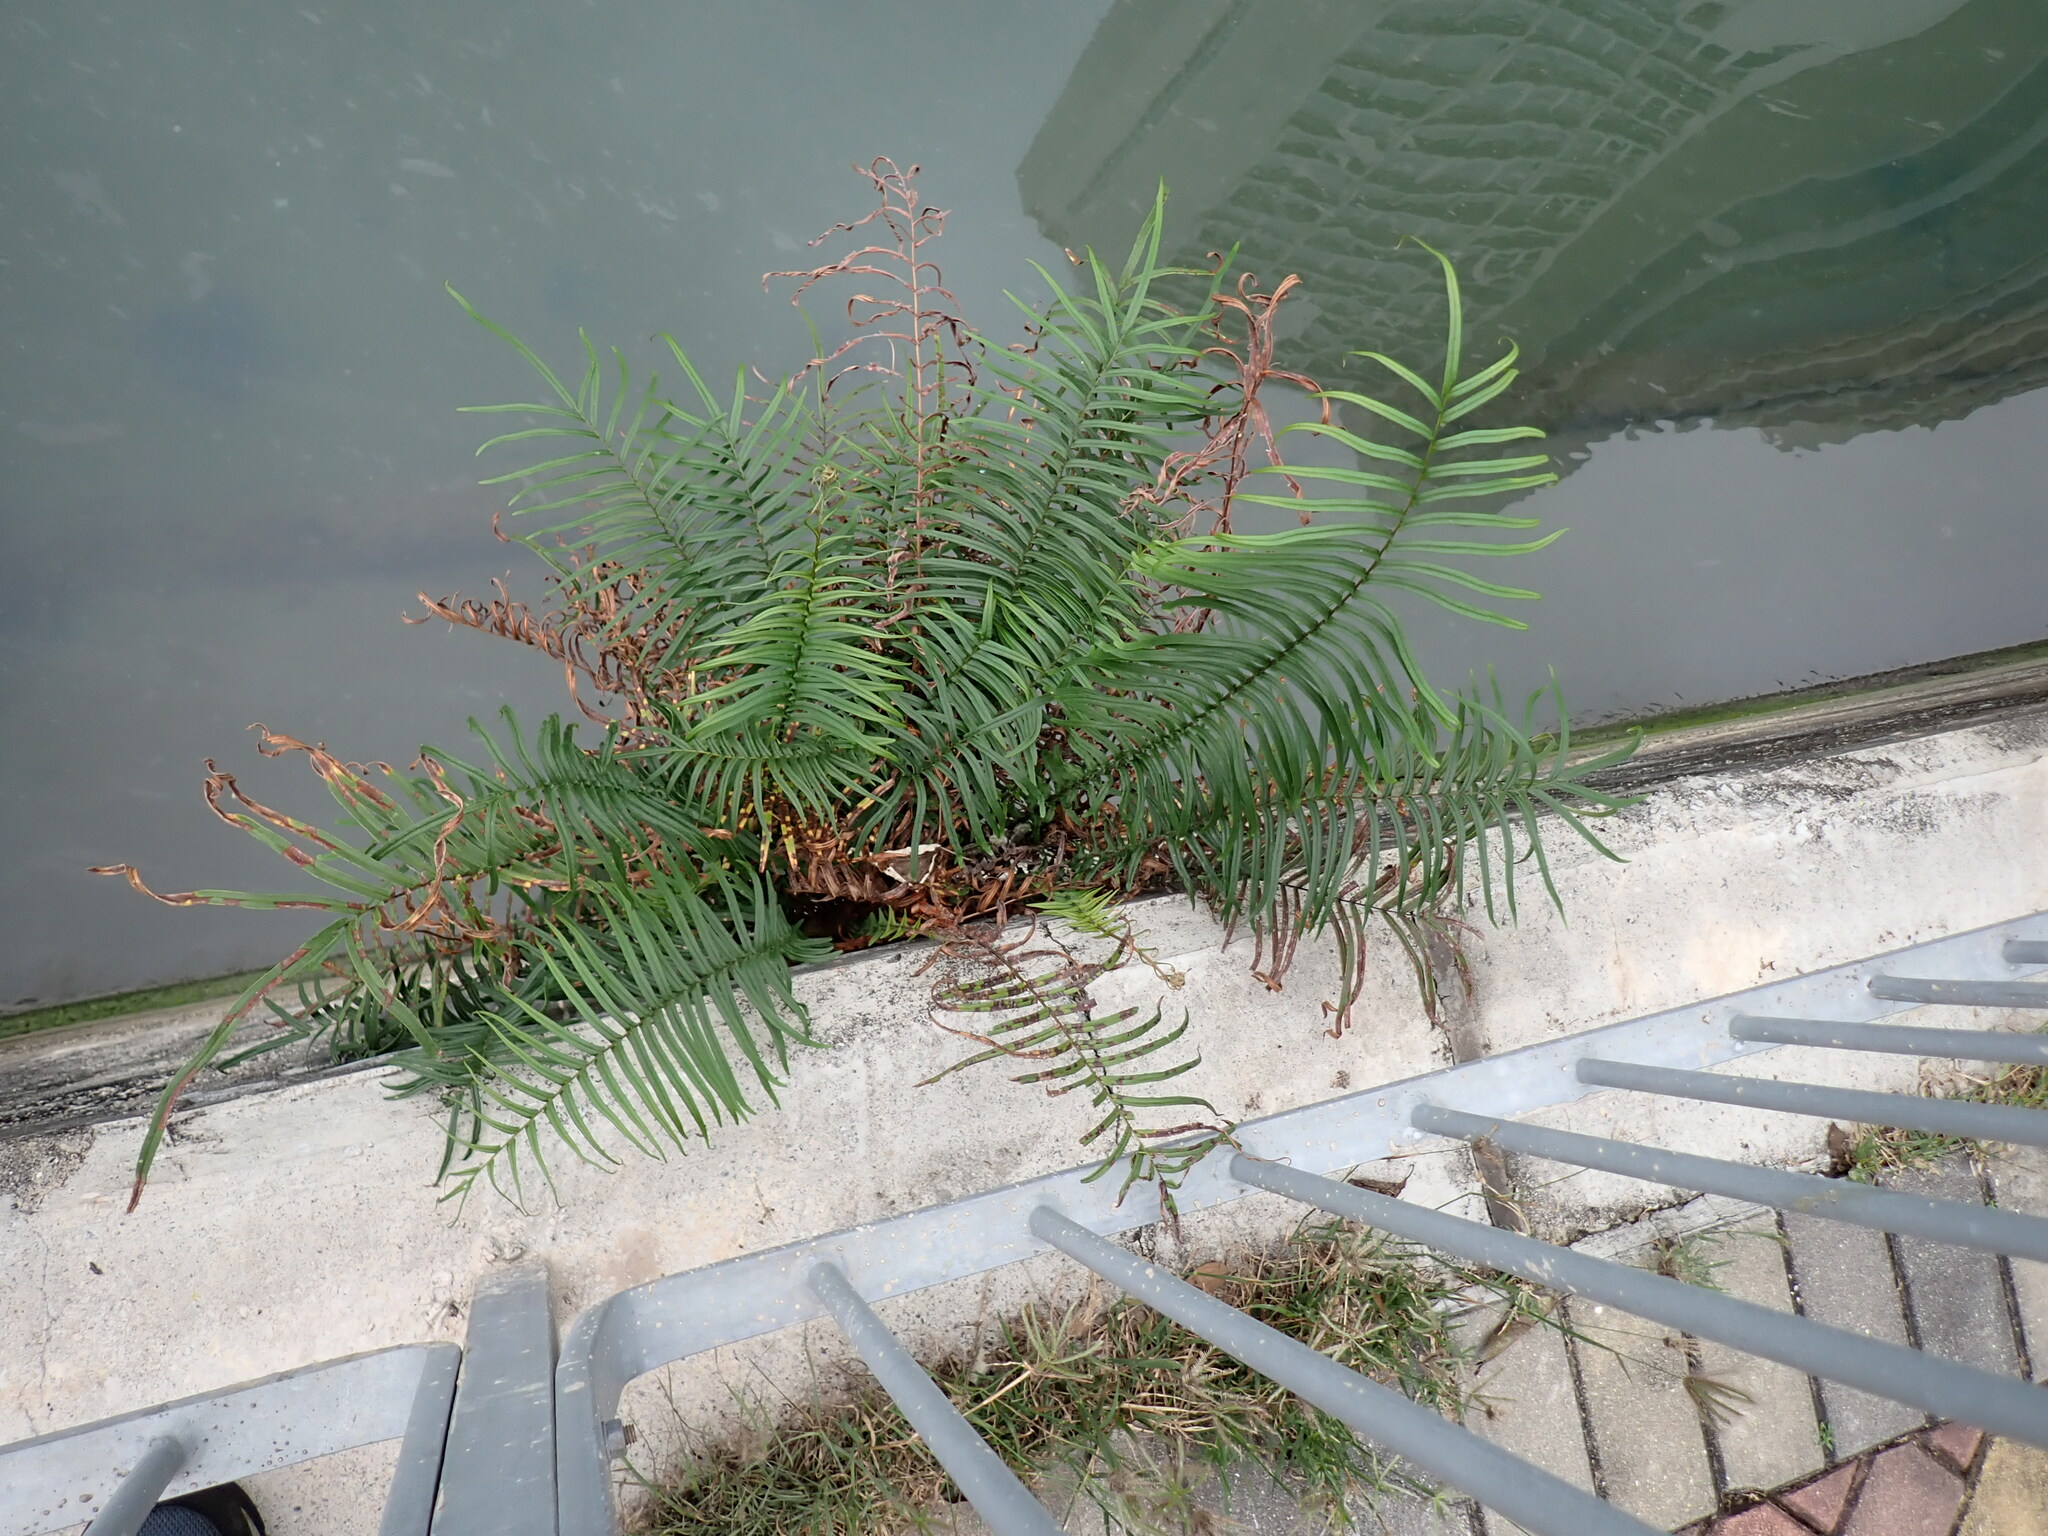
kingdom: Plantae
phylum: Tracheophyta
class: Polypodiopsida
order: Polypodiales
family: Pteridaceae
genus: Pteris
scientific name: Pteris vittata
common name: Ladder brake
